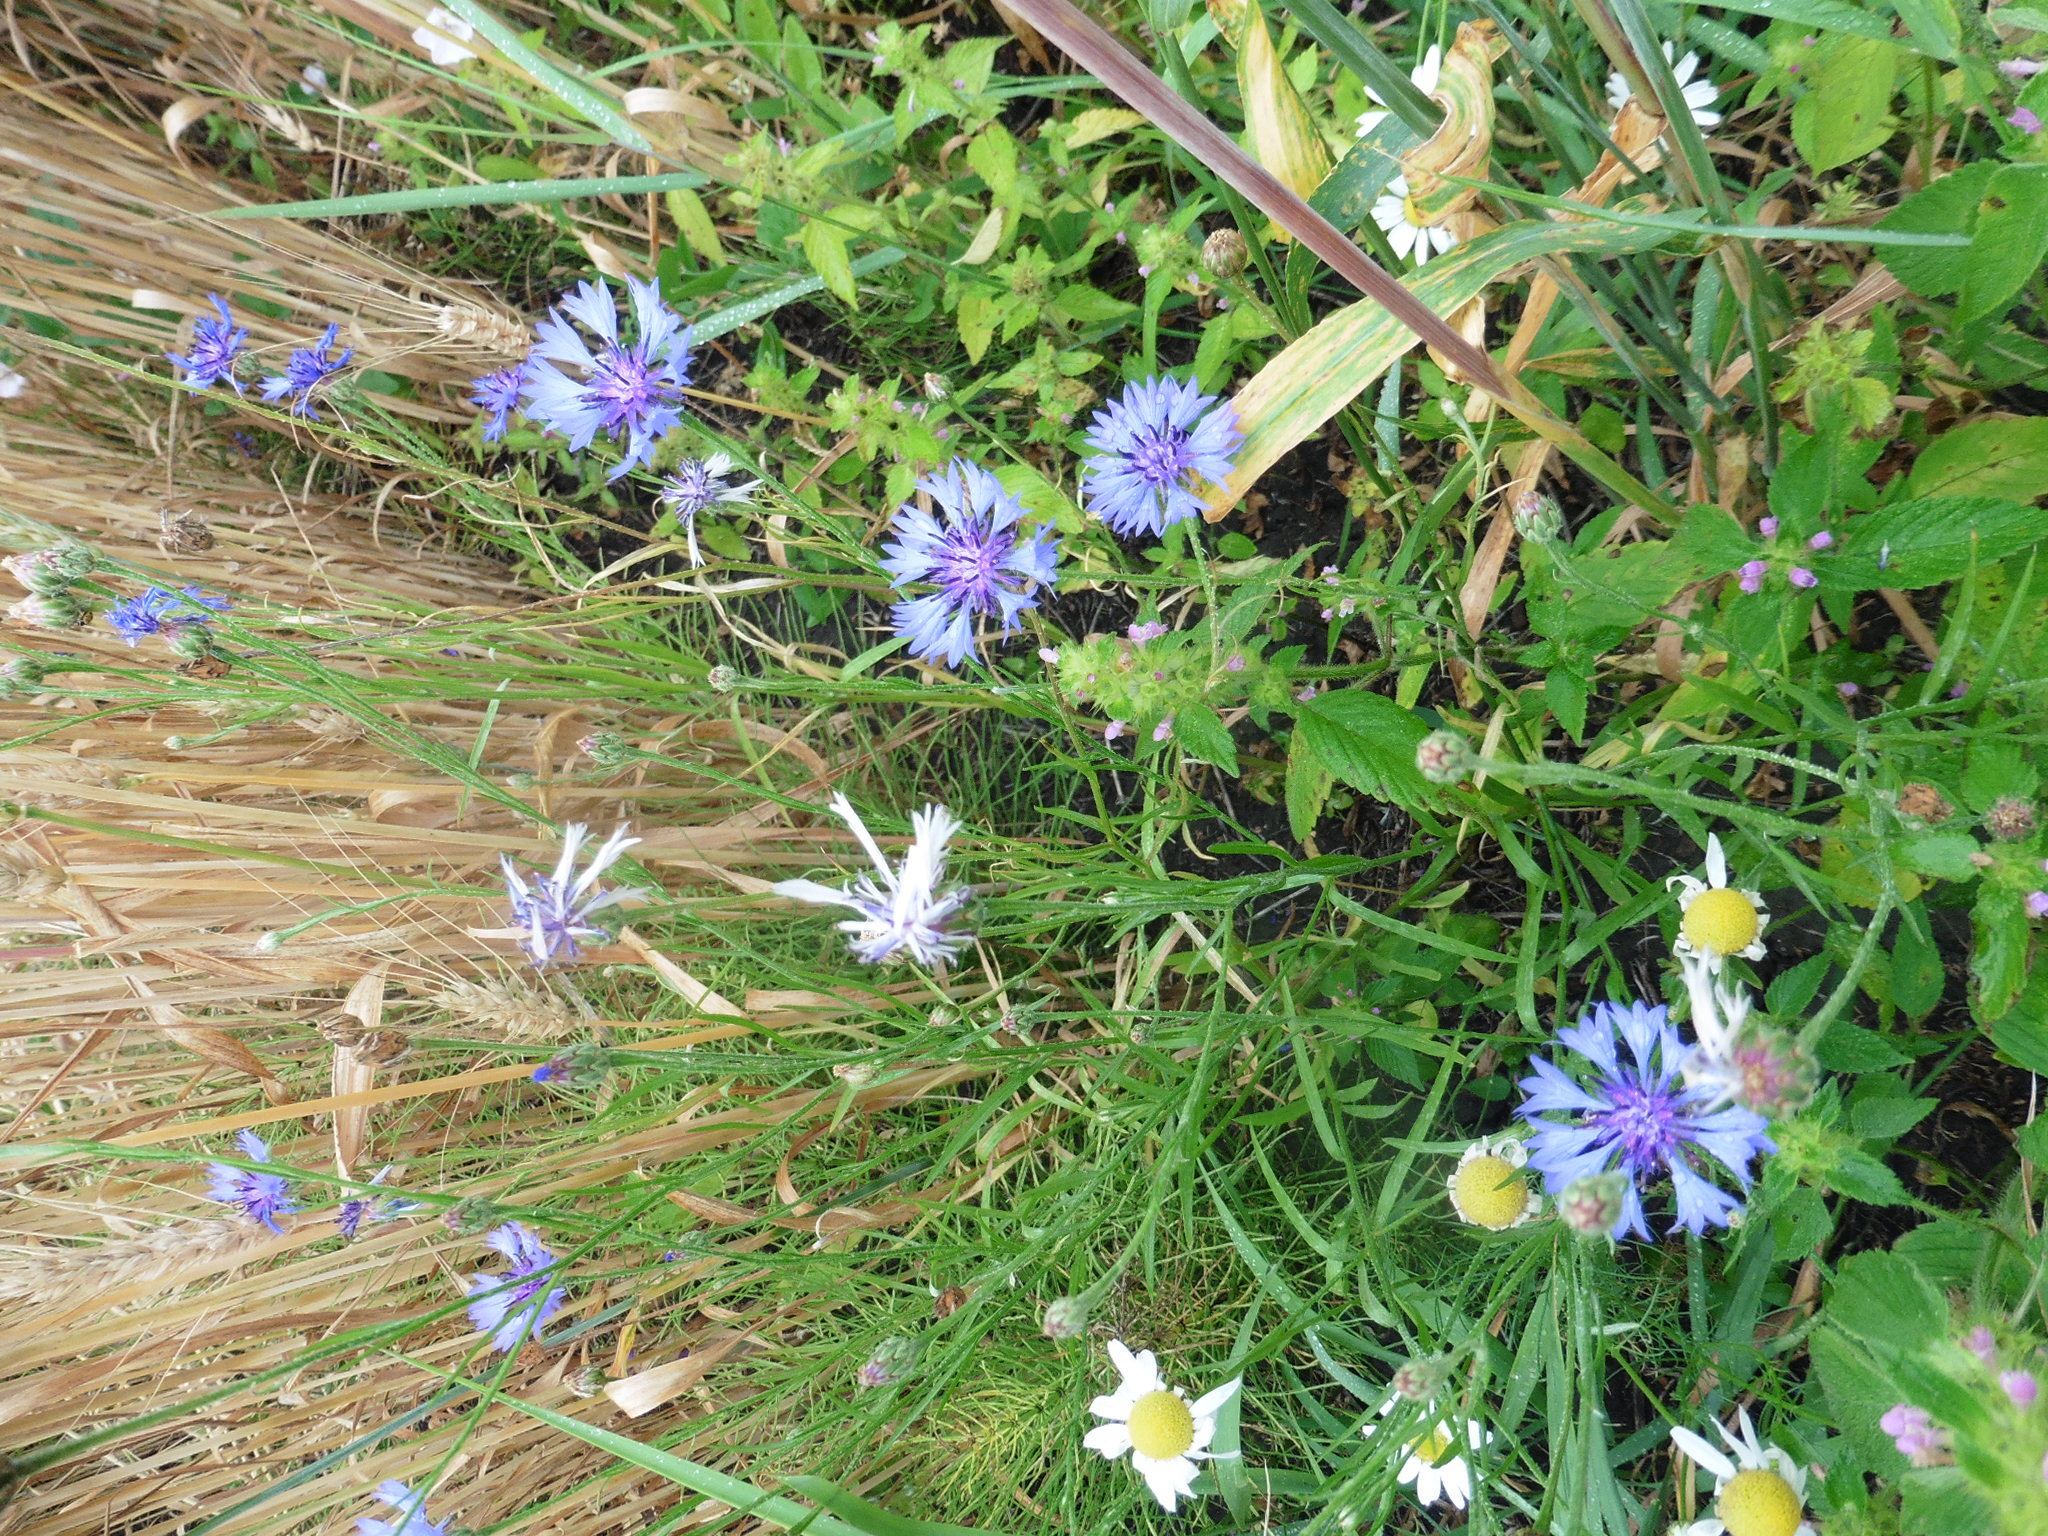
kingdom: Plantae
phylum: Tracheophyta
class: Magnoliopsida
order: Asterales
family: Asteraceae
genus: Centaurea
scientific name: Centaurea cyanus
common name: Cornflower
